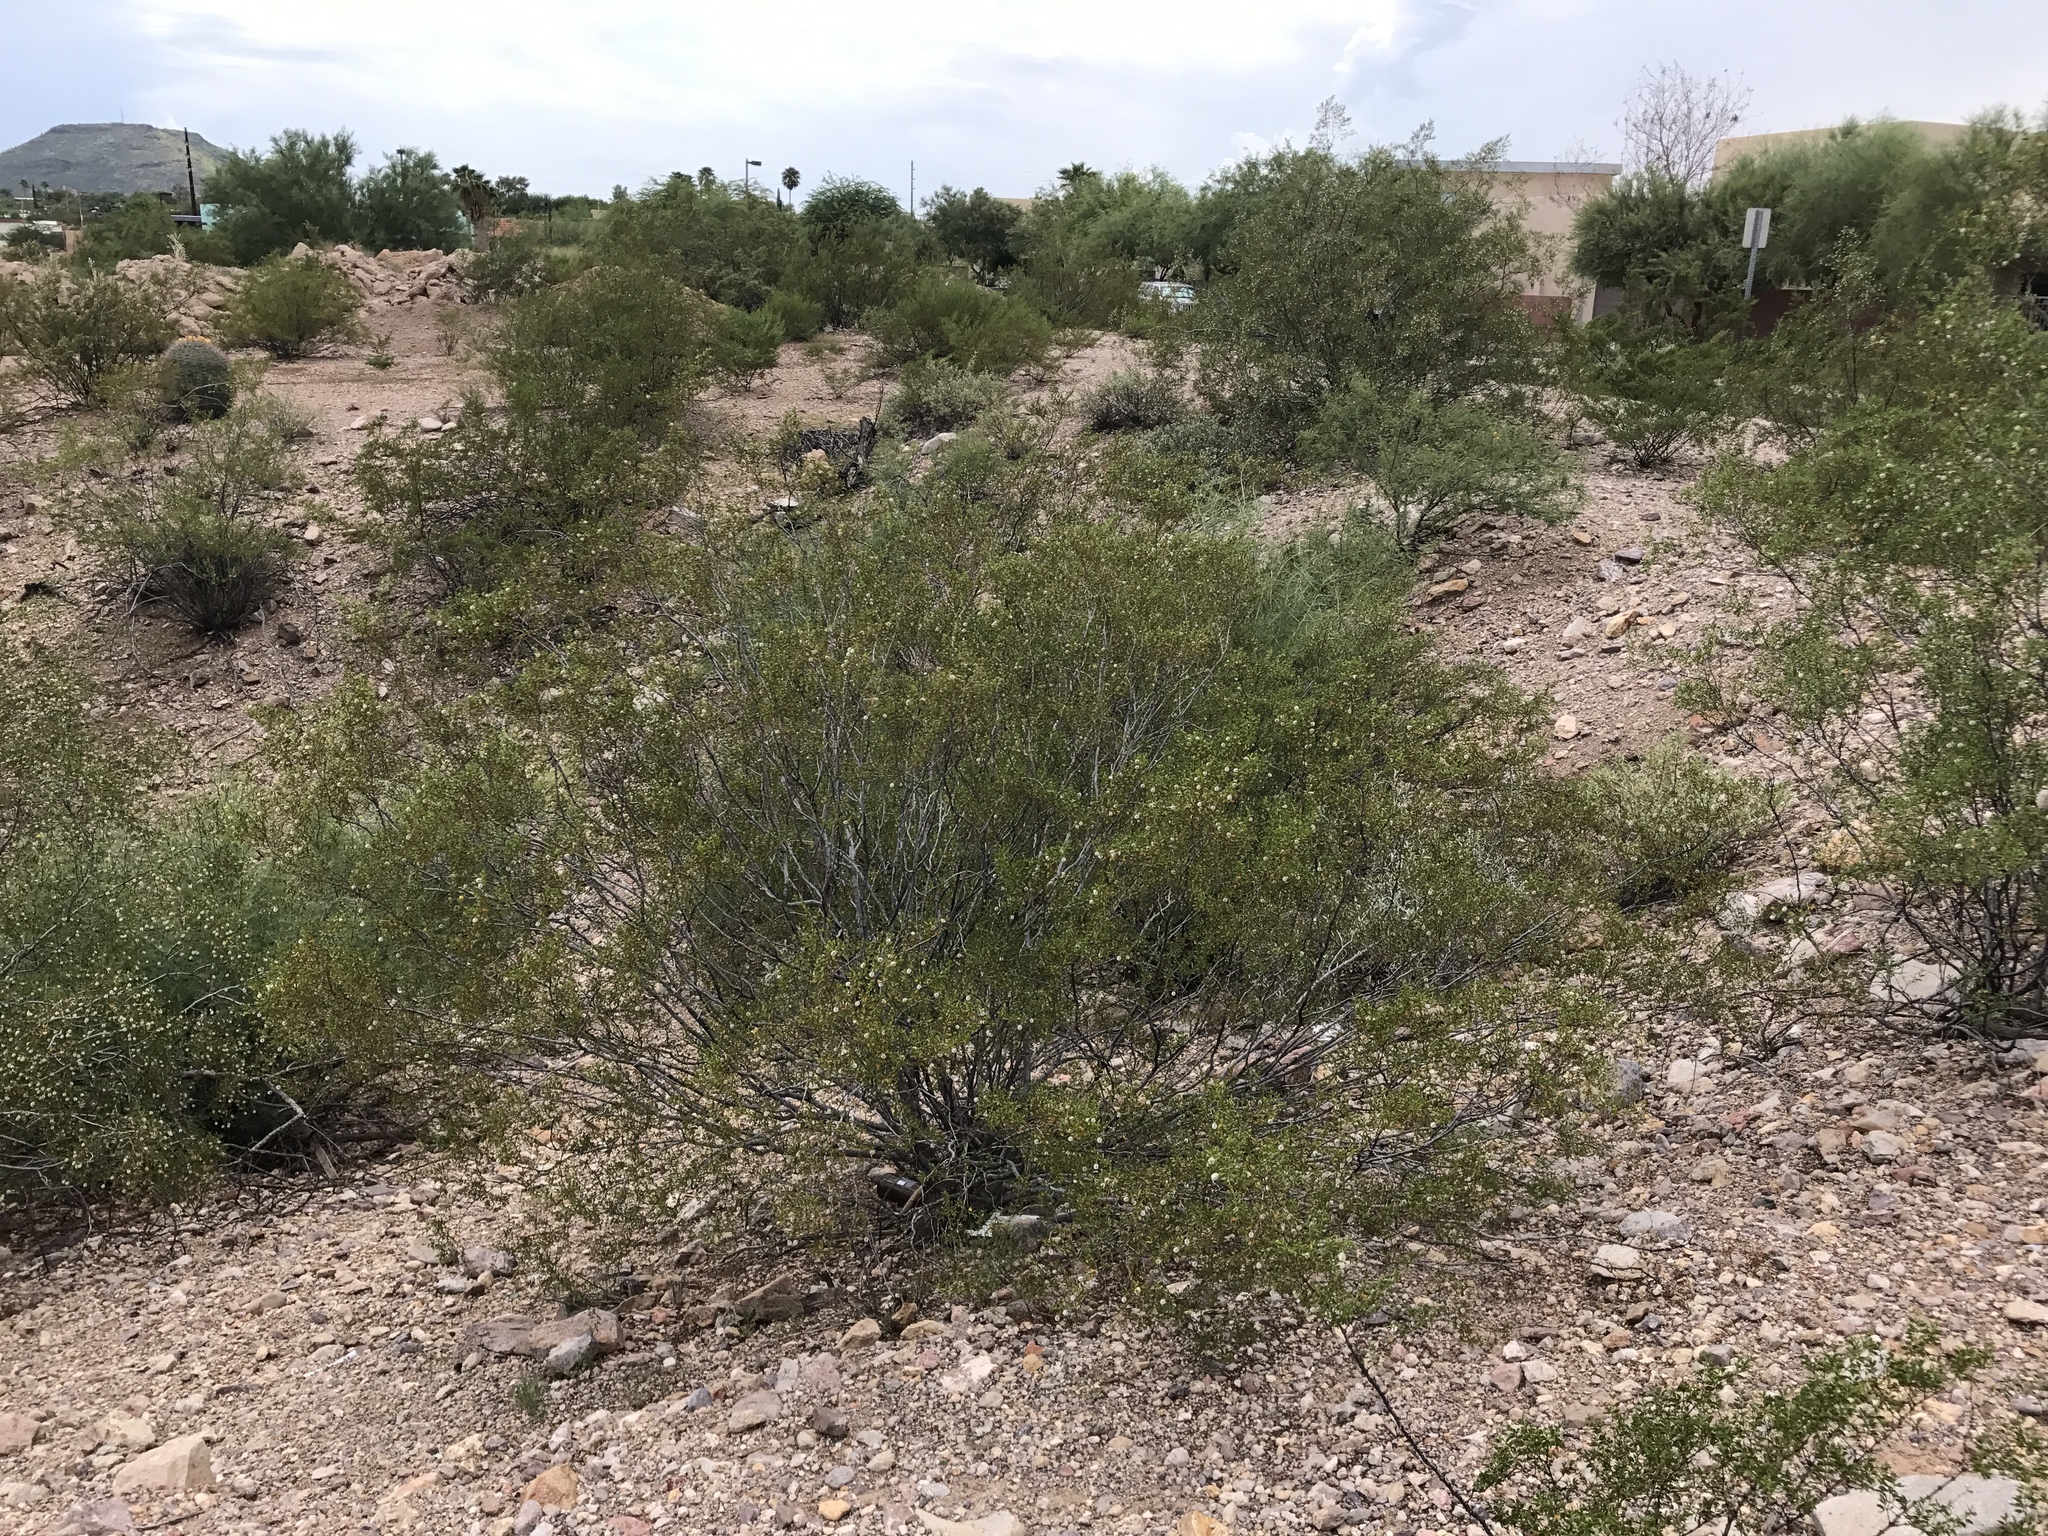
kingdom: Plantae
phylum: Tracheophyta
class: Magnoliopsida
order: Zygophyllales
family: Zygophyllaceae
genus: Larrea
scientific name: Larrea tridentata
